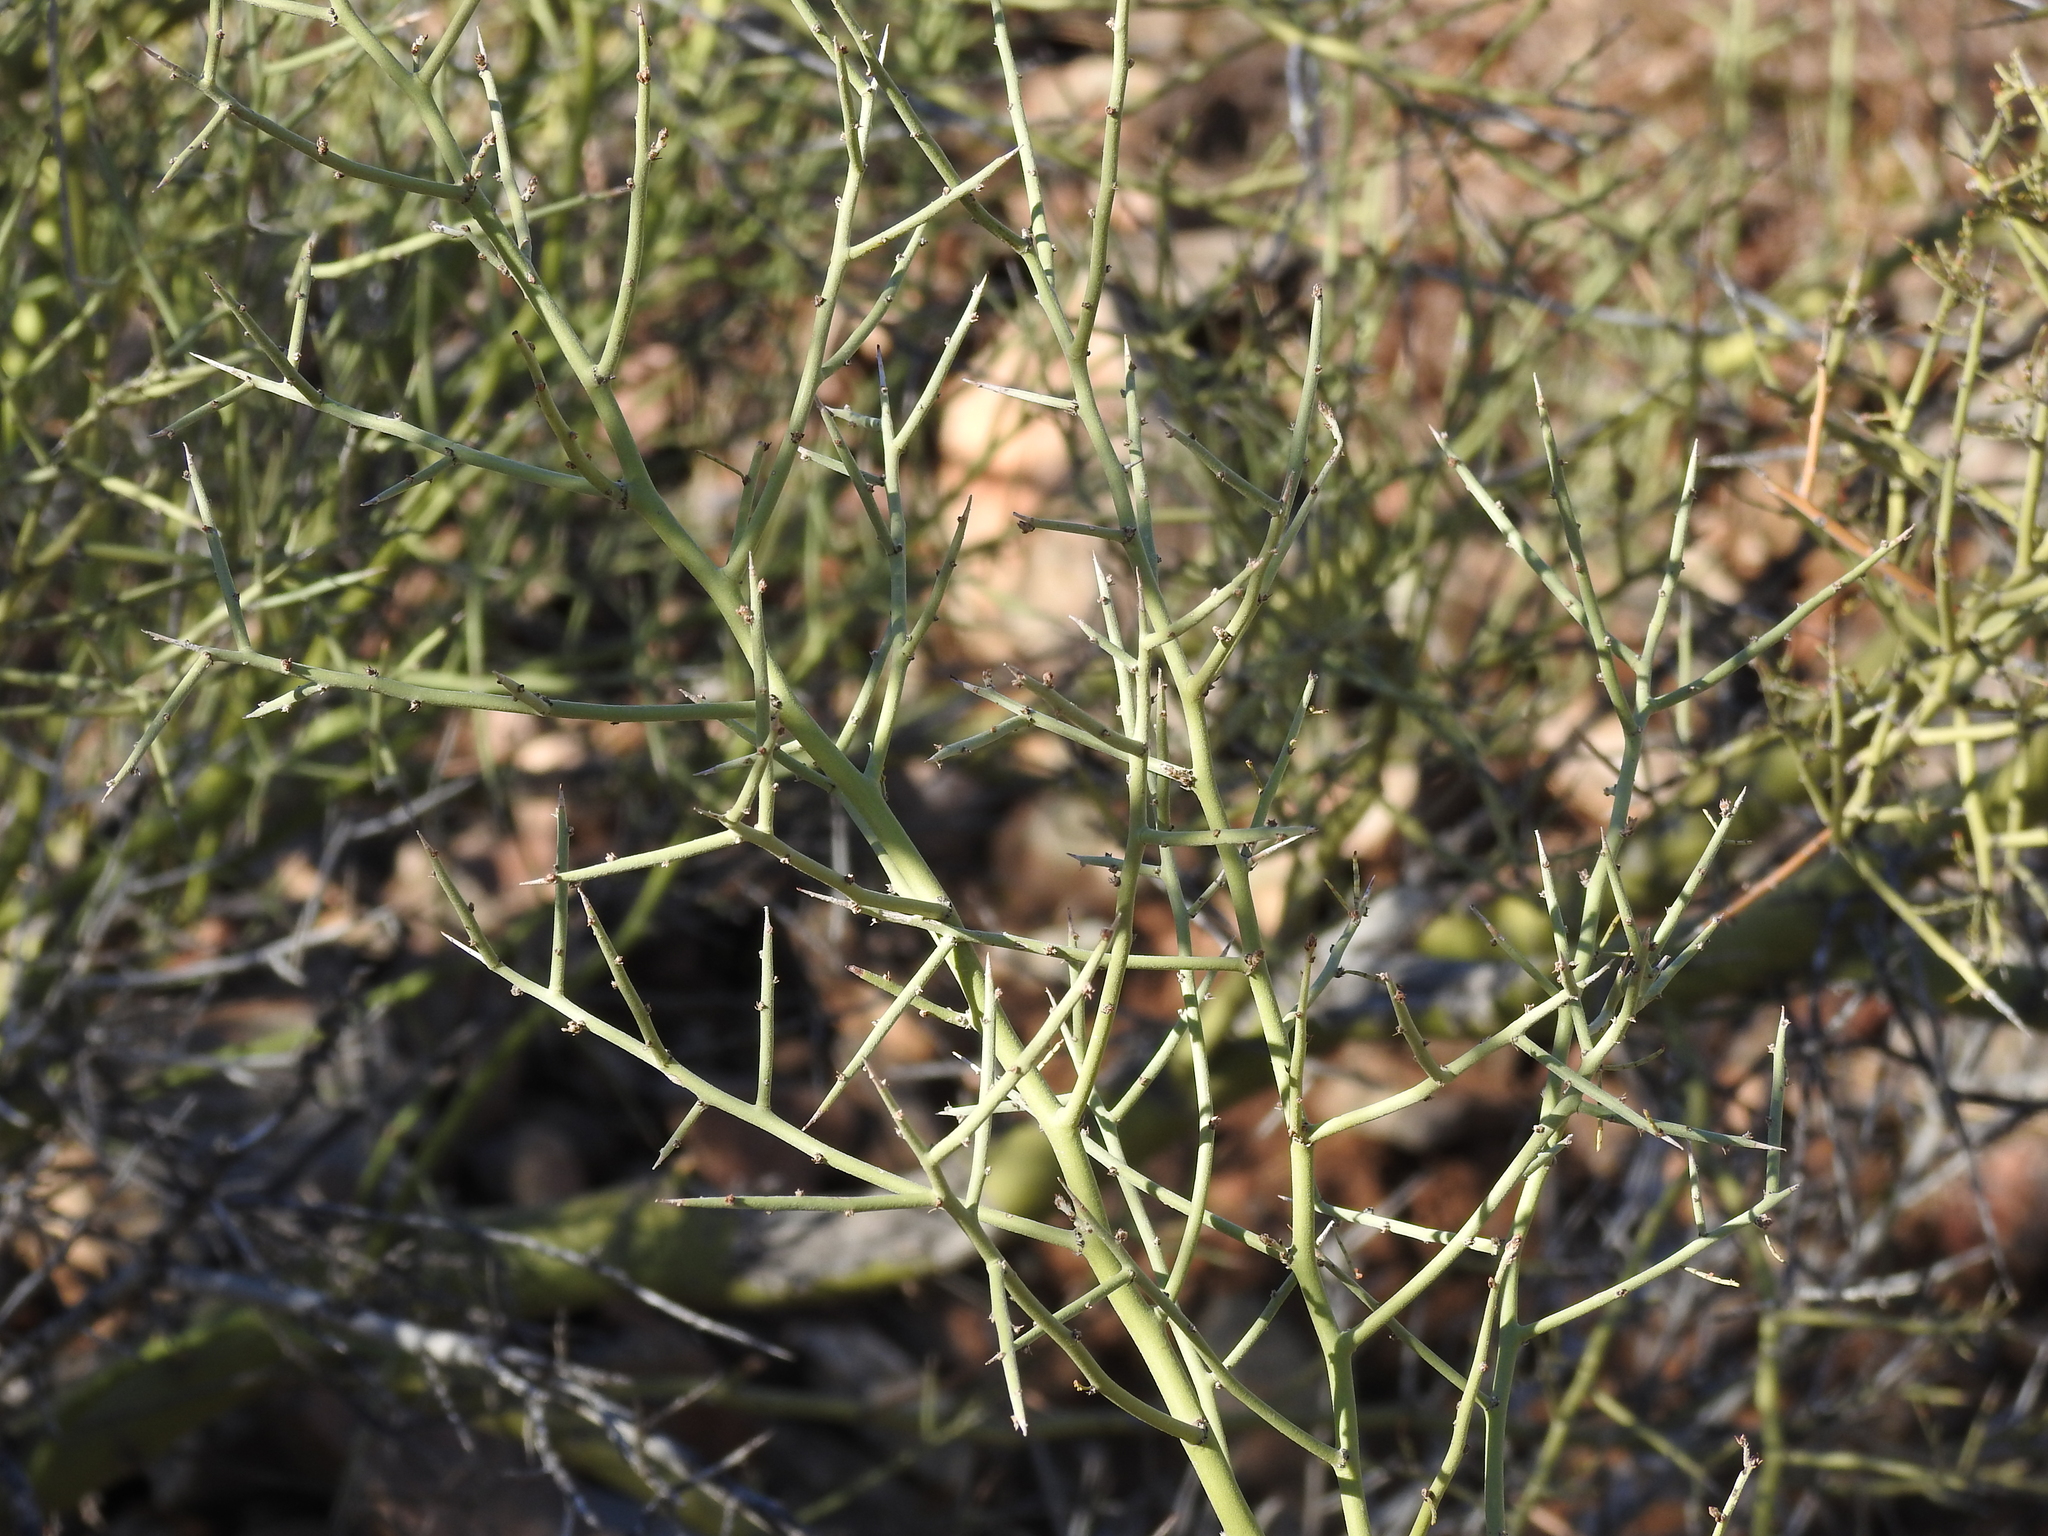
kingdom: Plantae
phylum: Tracheophyta
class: Magnoliopsida
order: Fabales
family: Fabaceae
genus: Parkinsonia
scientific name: Parkinsonia microphylla
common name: Yellow paloverde
